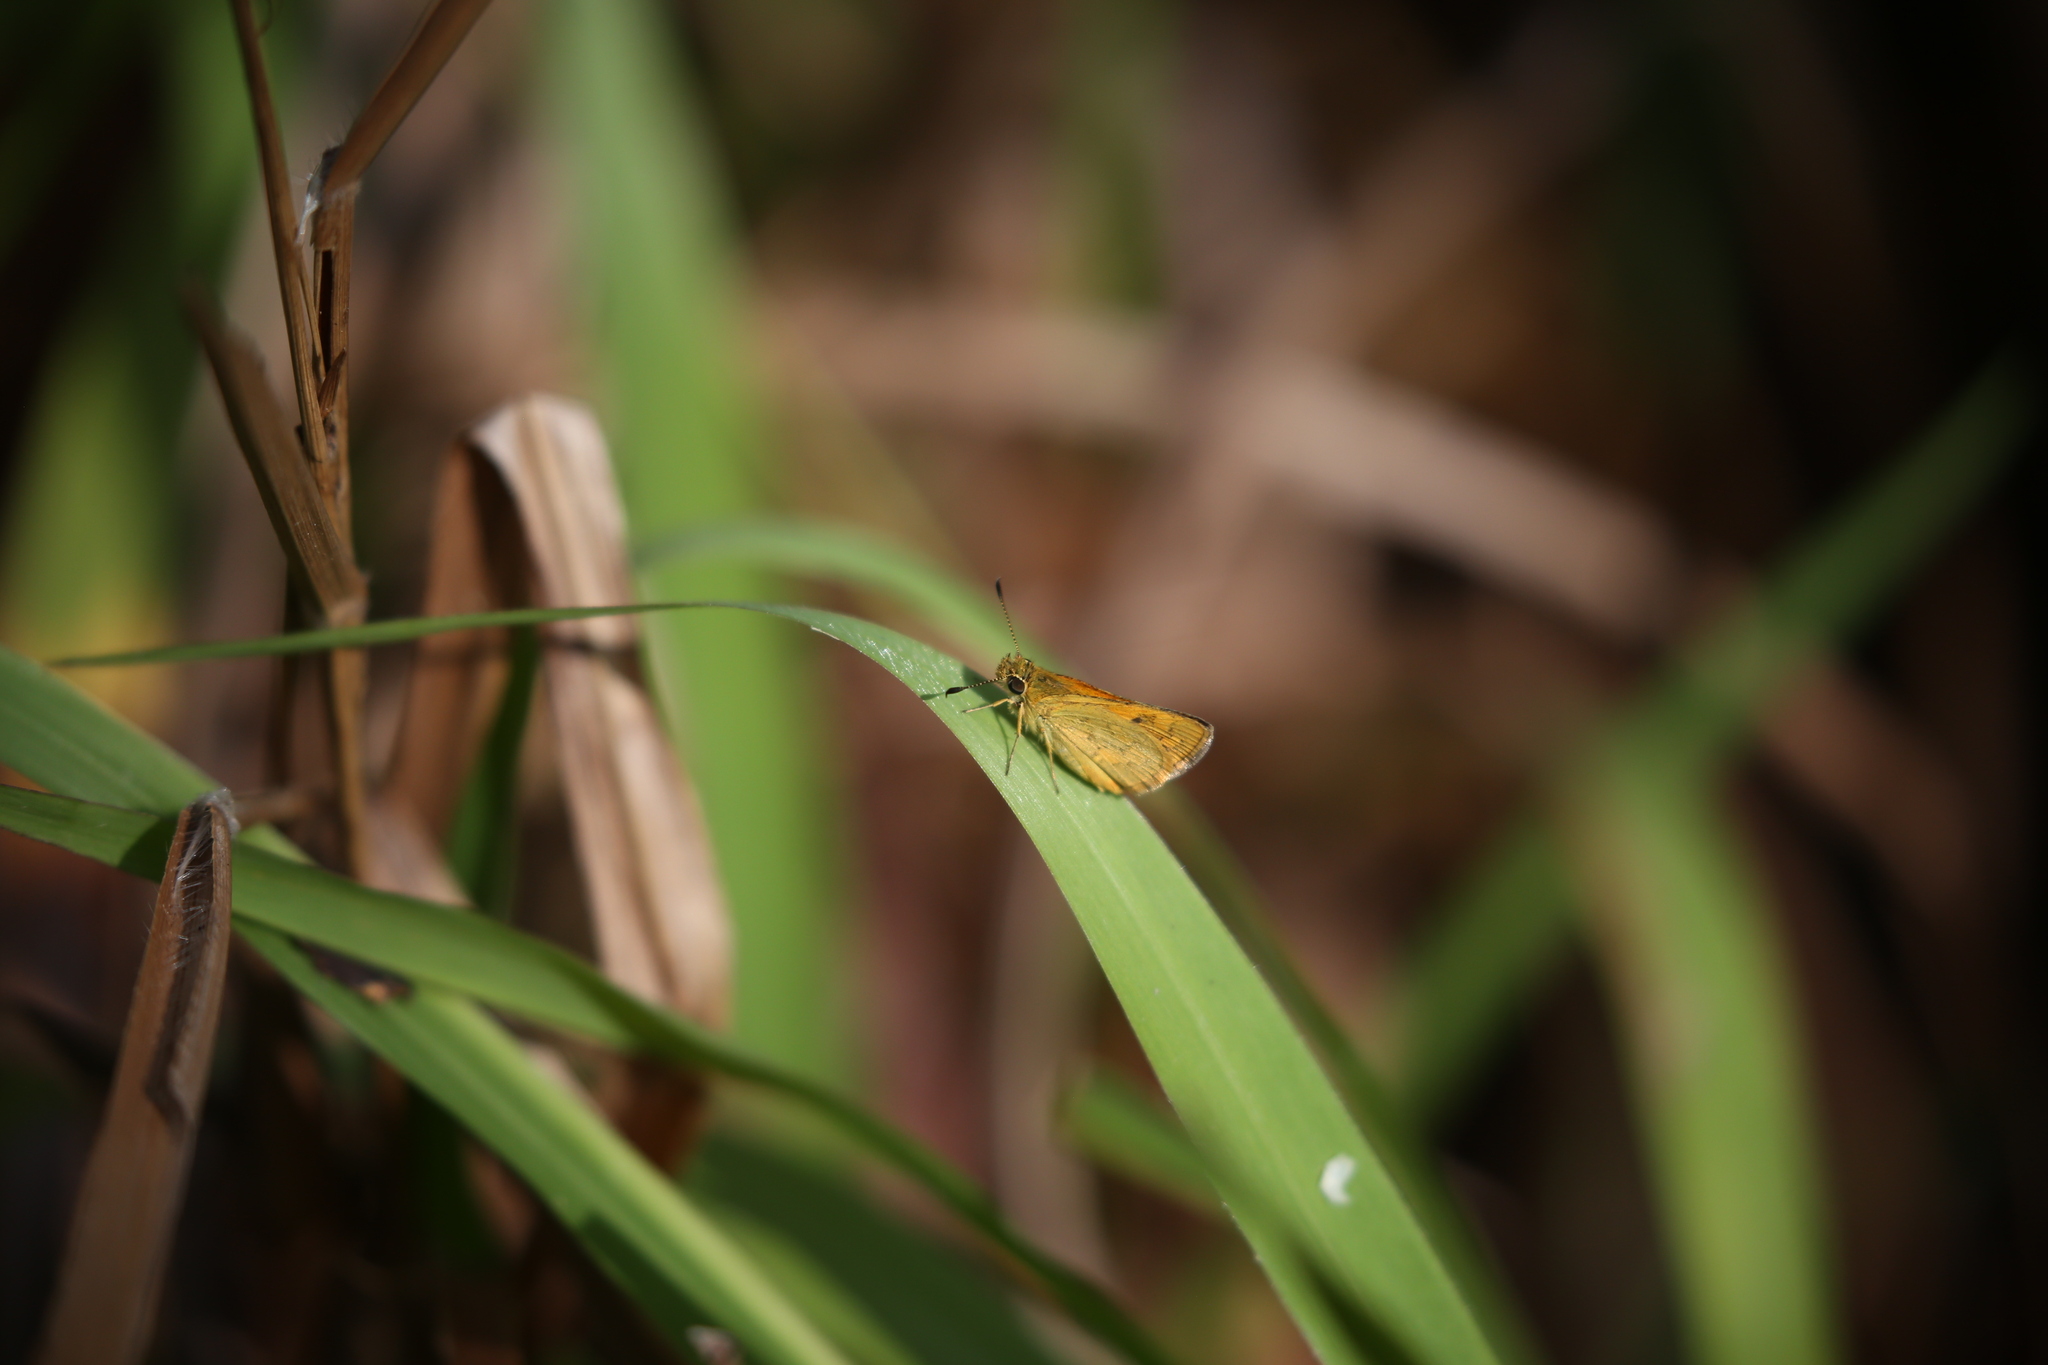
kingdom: Animalia
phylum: Arthropoda
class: Insecta
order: Lepidoptera
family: Hesperiidae
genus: Ocybadistes
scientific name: Ocybadistes walkeri
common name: Yellow-banded dart
